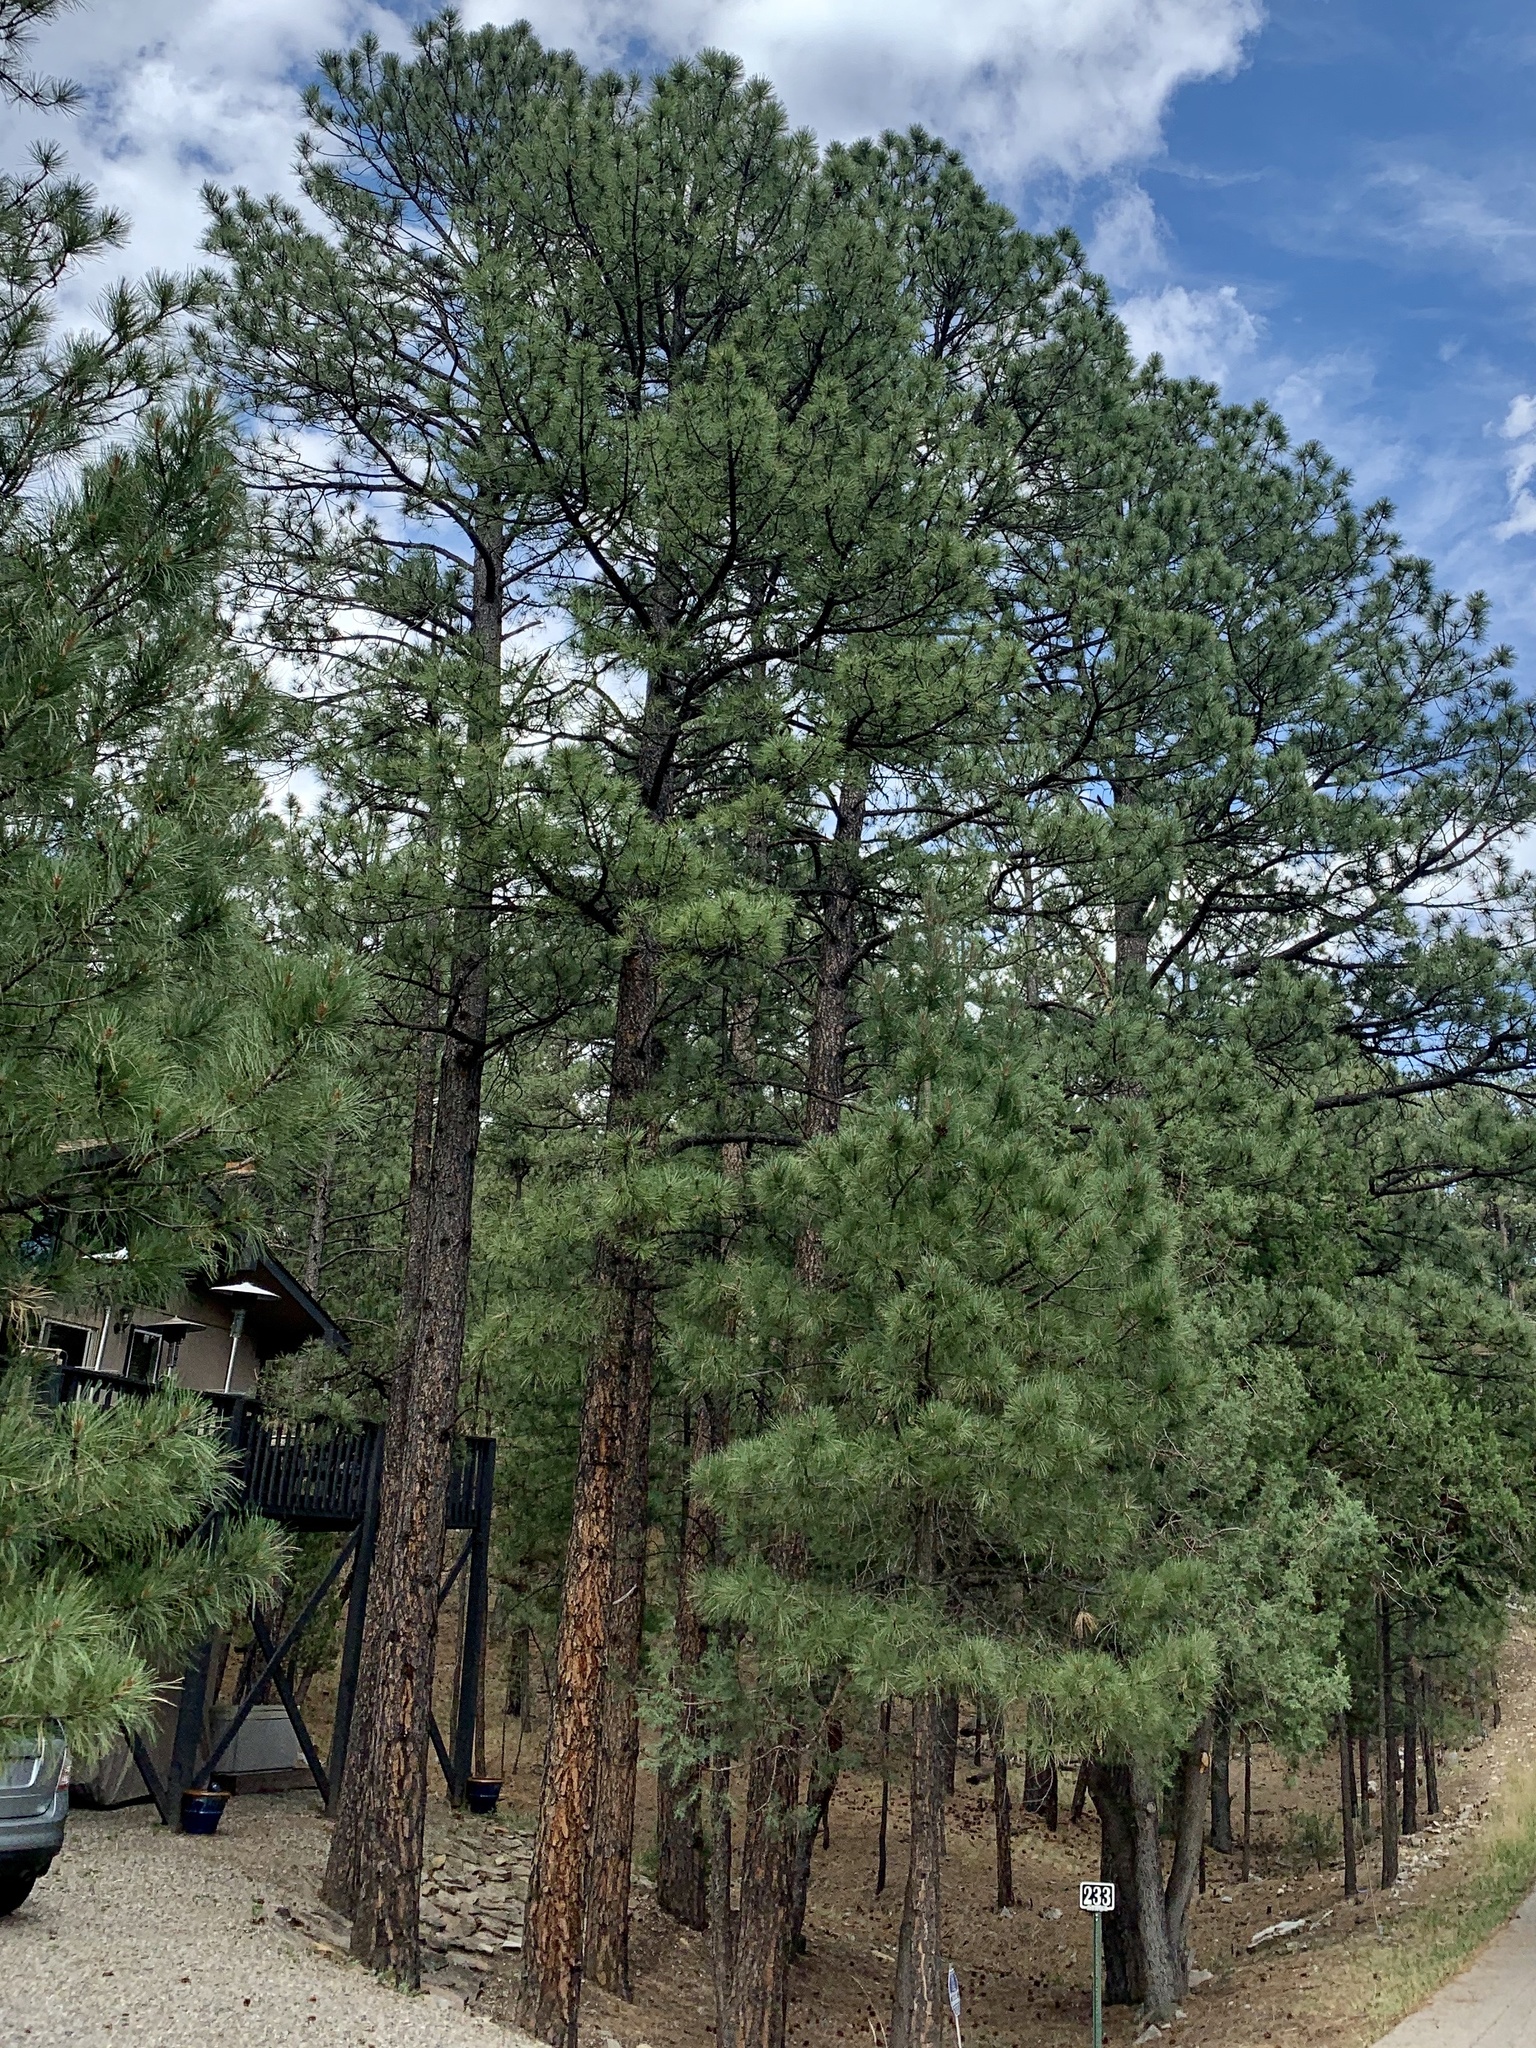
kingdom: Plantae
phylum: Tracheophyta
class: Pinopsida
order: Pinales
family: Pinaceae
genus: Pinus
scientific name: Pinus ponderosa
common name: Western yellow-pine
